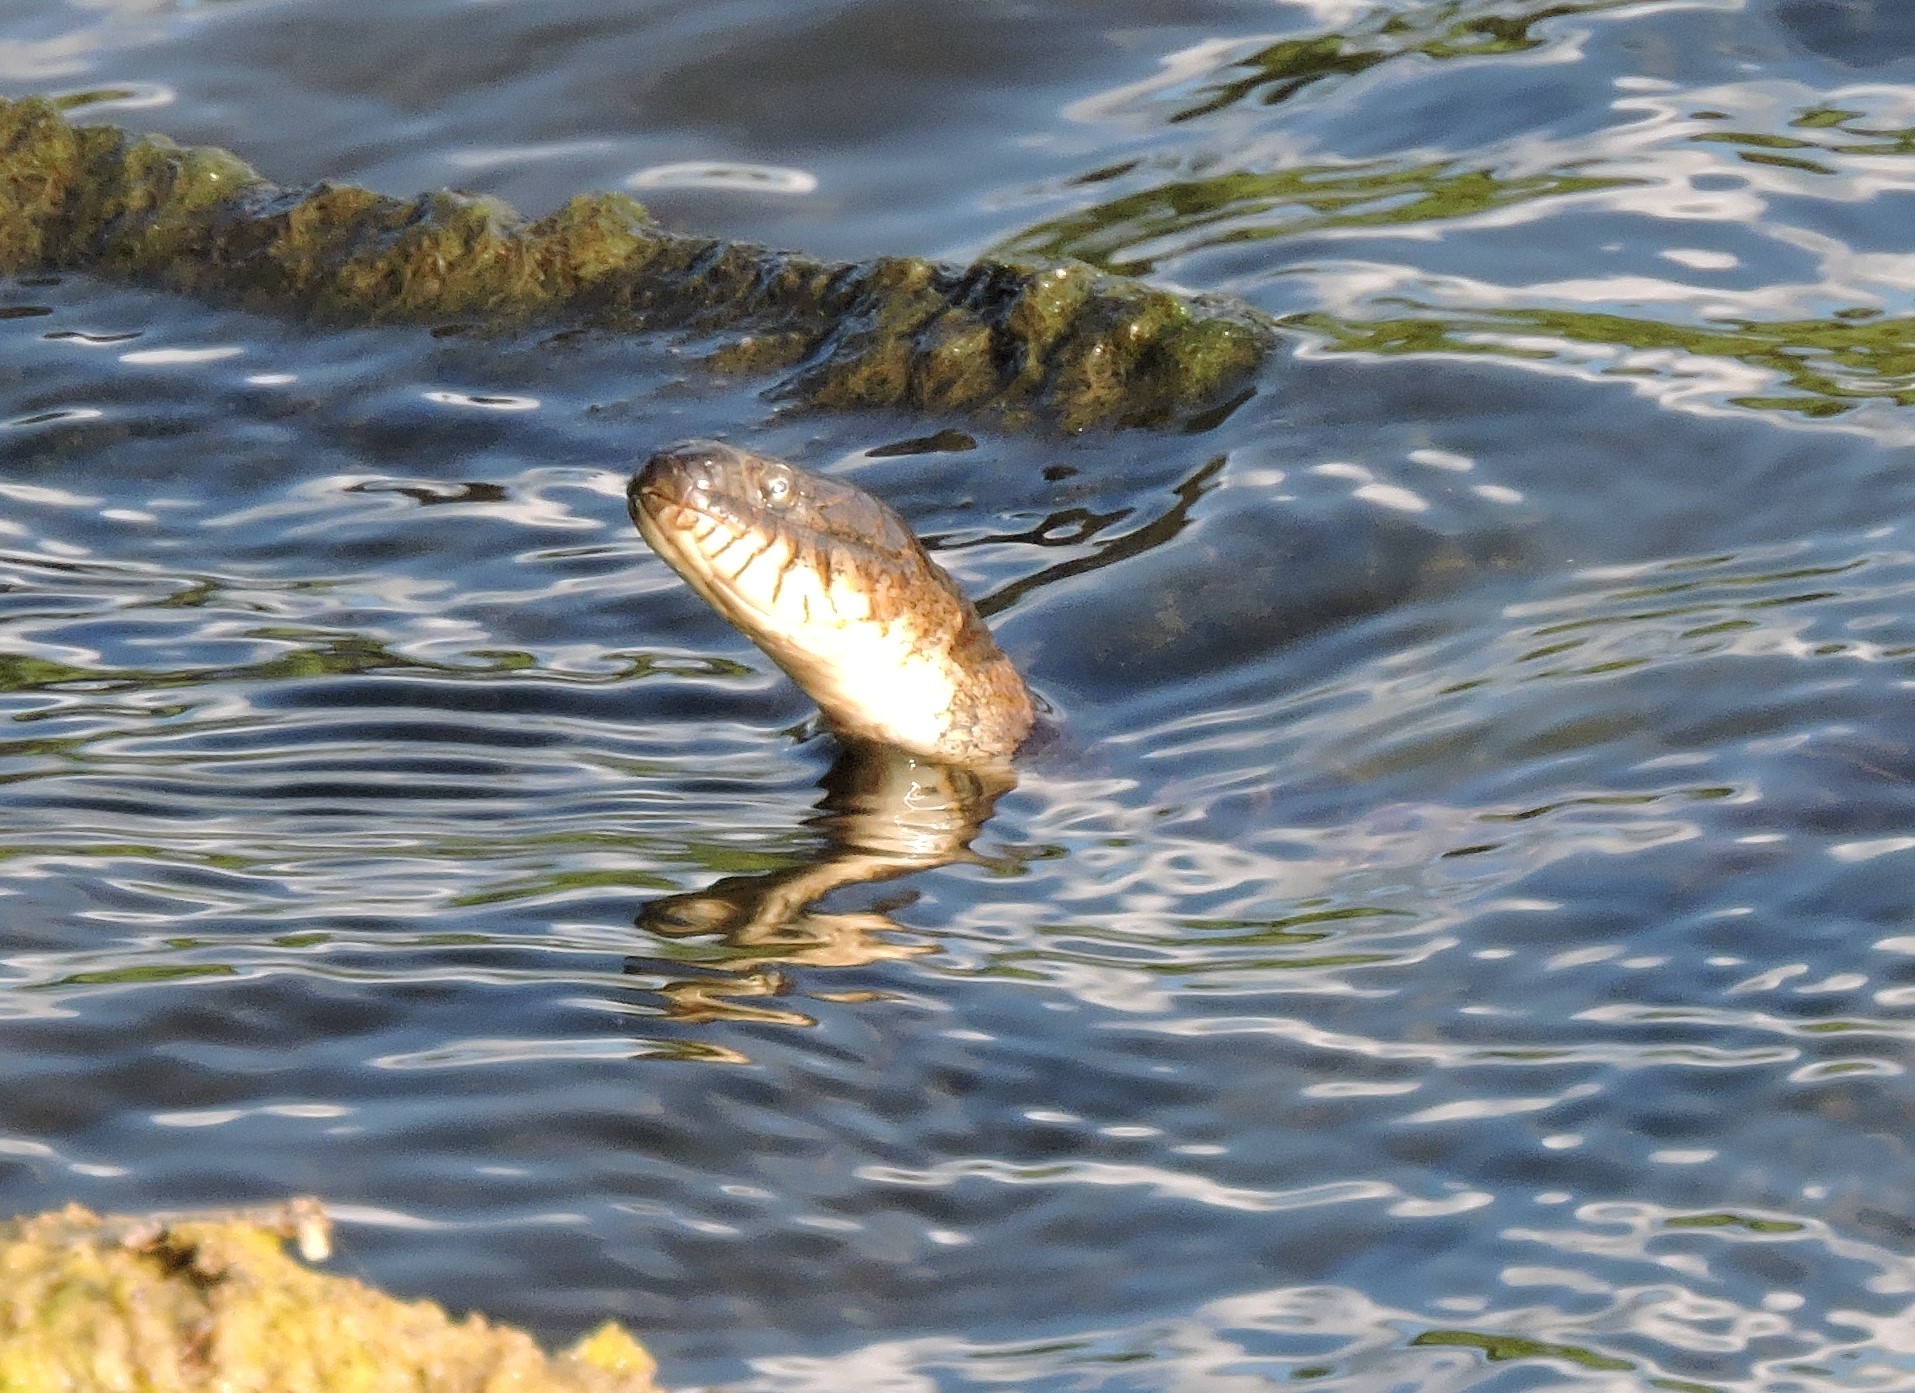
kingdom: Animalia
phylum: Chordata
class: Squamata
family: Colubridae
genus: Nerodia
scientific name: Nerodia sipedon
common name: Northern water snake
